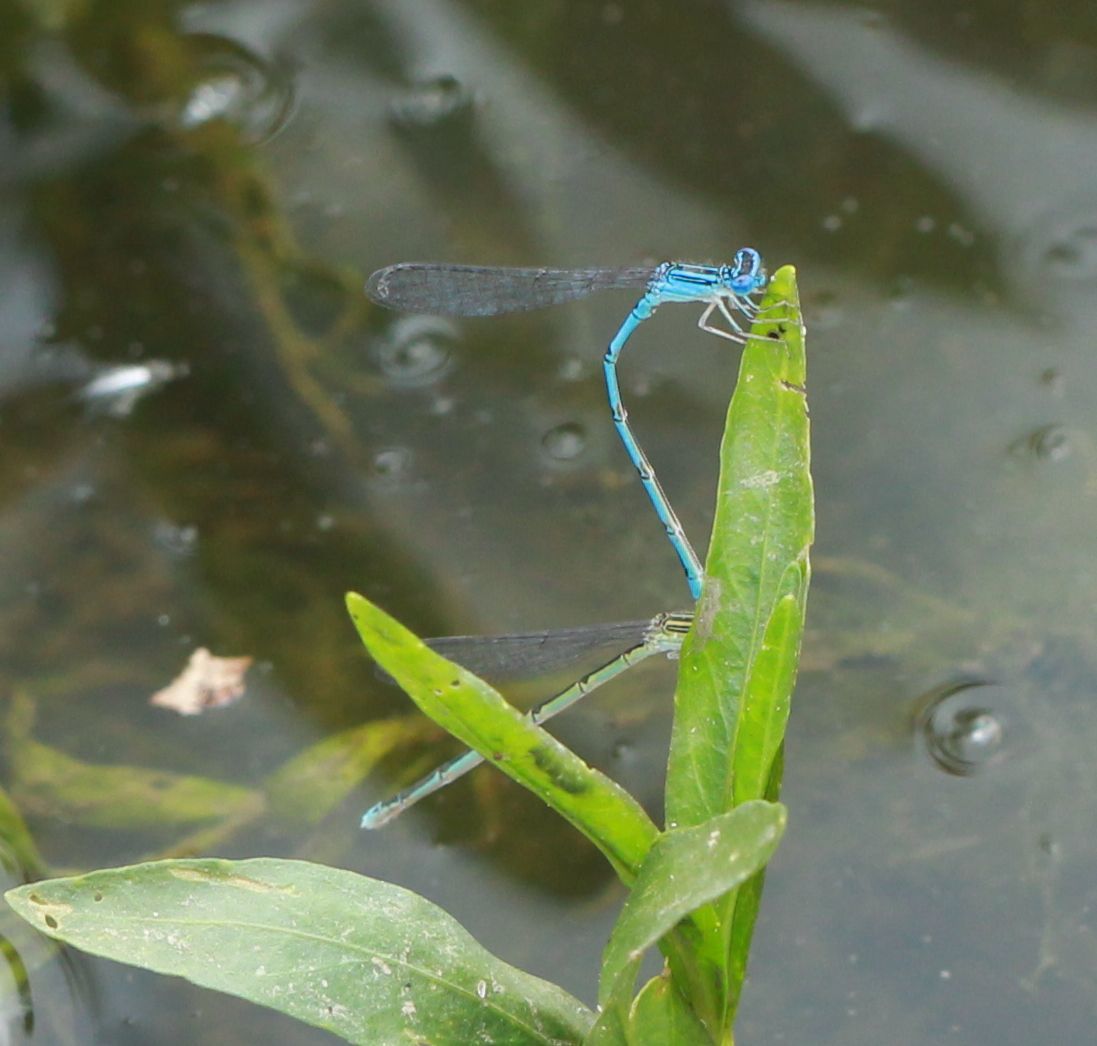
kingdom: Animalia
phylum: Arthropoda
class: Insecta
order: Odonata
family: Coenagrionidae
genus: Enallagma
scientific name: Enallagma basidens
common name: Double-striped bluet
